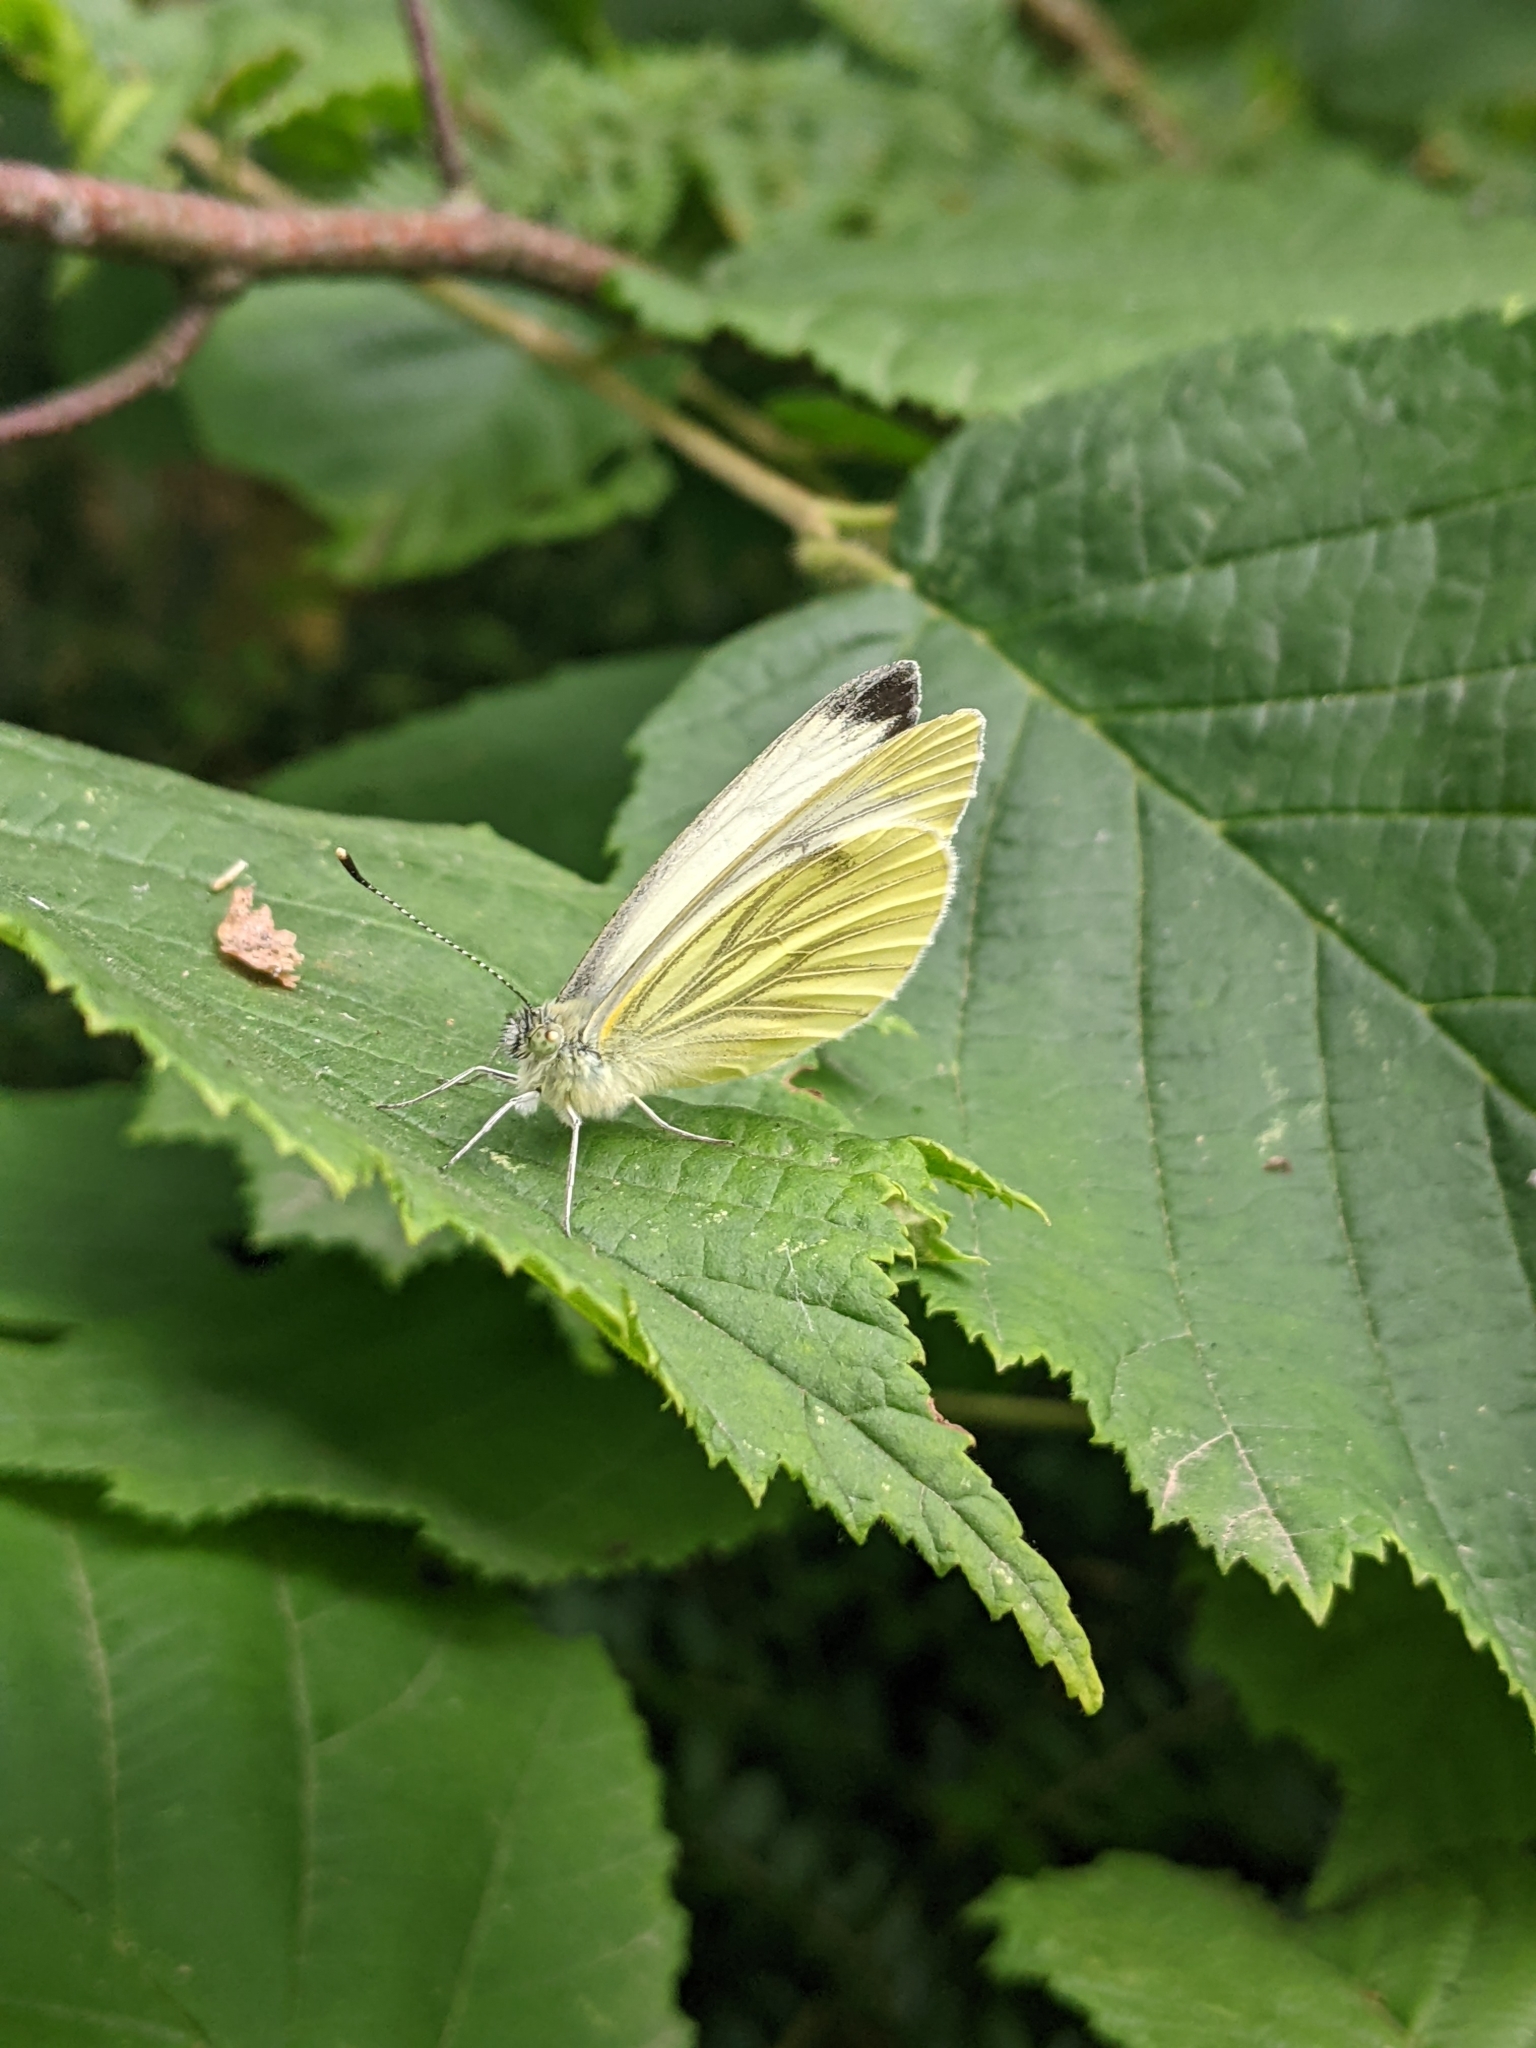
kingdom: Animalia
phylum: Arthropoda
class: Insecta
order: Lepidoptera
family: Pieridae
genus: Pieris
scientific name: Pieris napi
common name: Green-veined white
